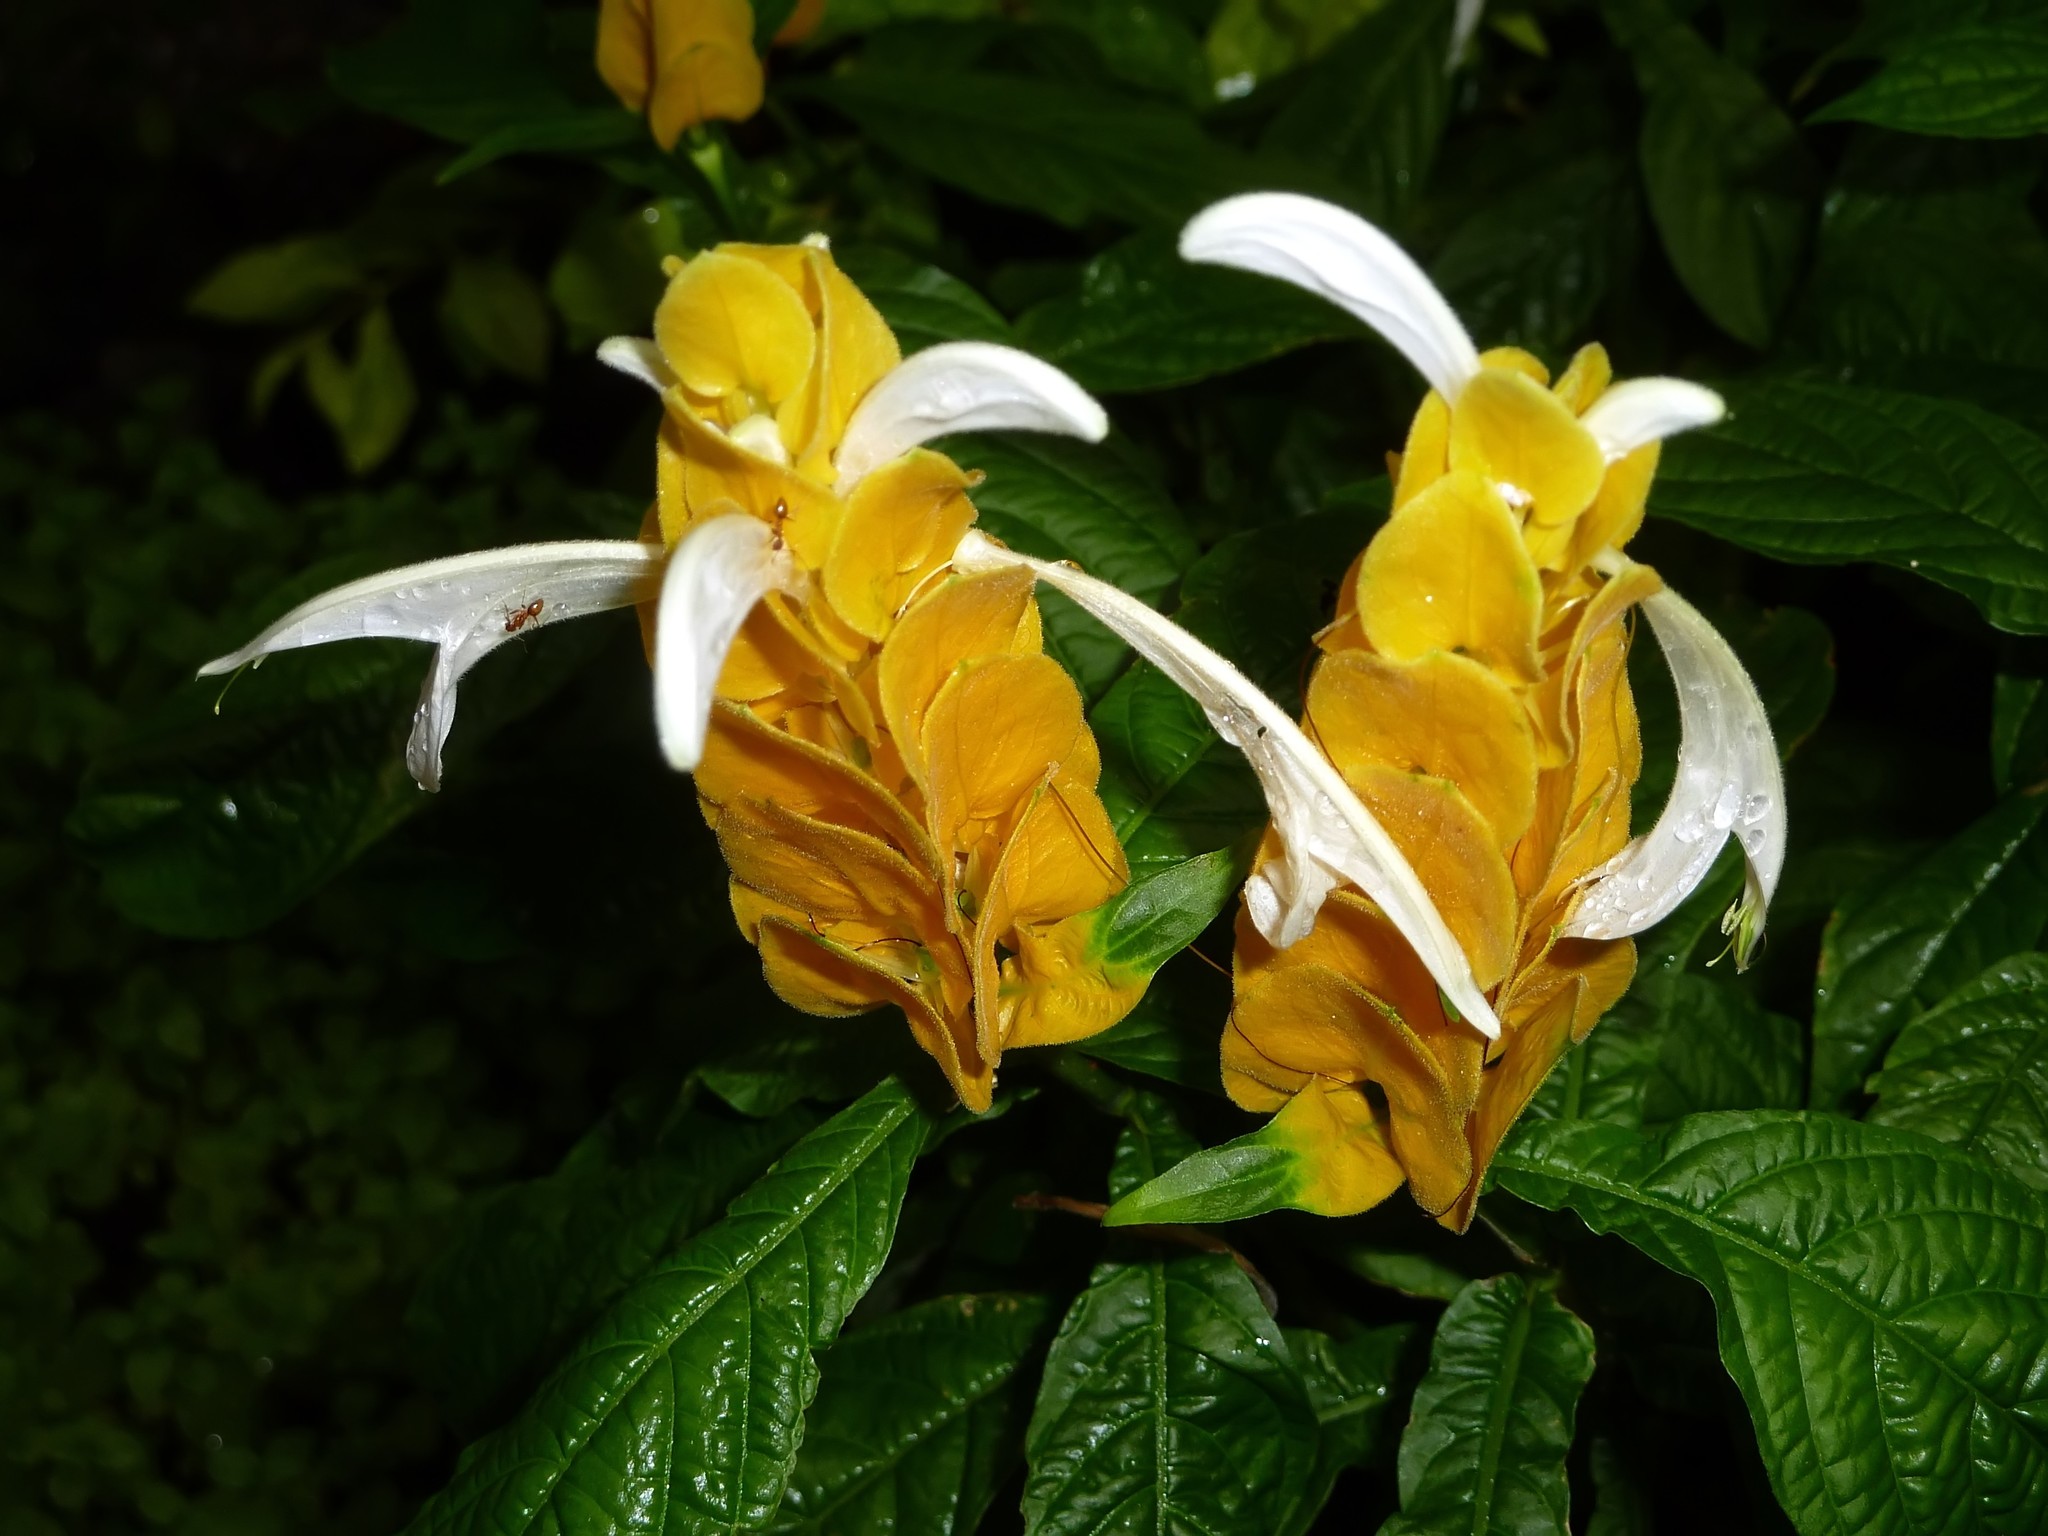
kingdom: Plantae
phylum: Tracheophyta
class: Magnoliopsida
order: Lamiales
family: Acanthaceae
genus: Pachystachys
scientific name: Pachystachys lutea
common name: Golden shrimp-plant
